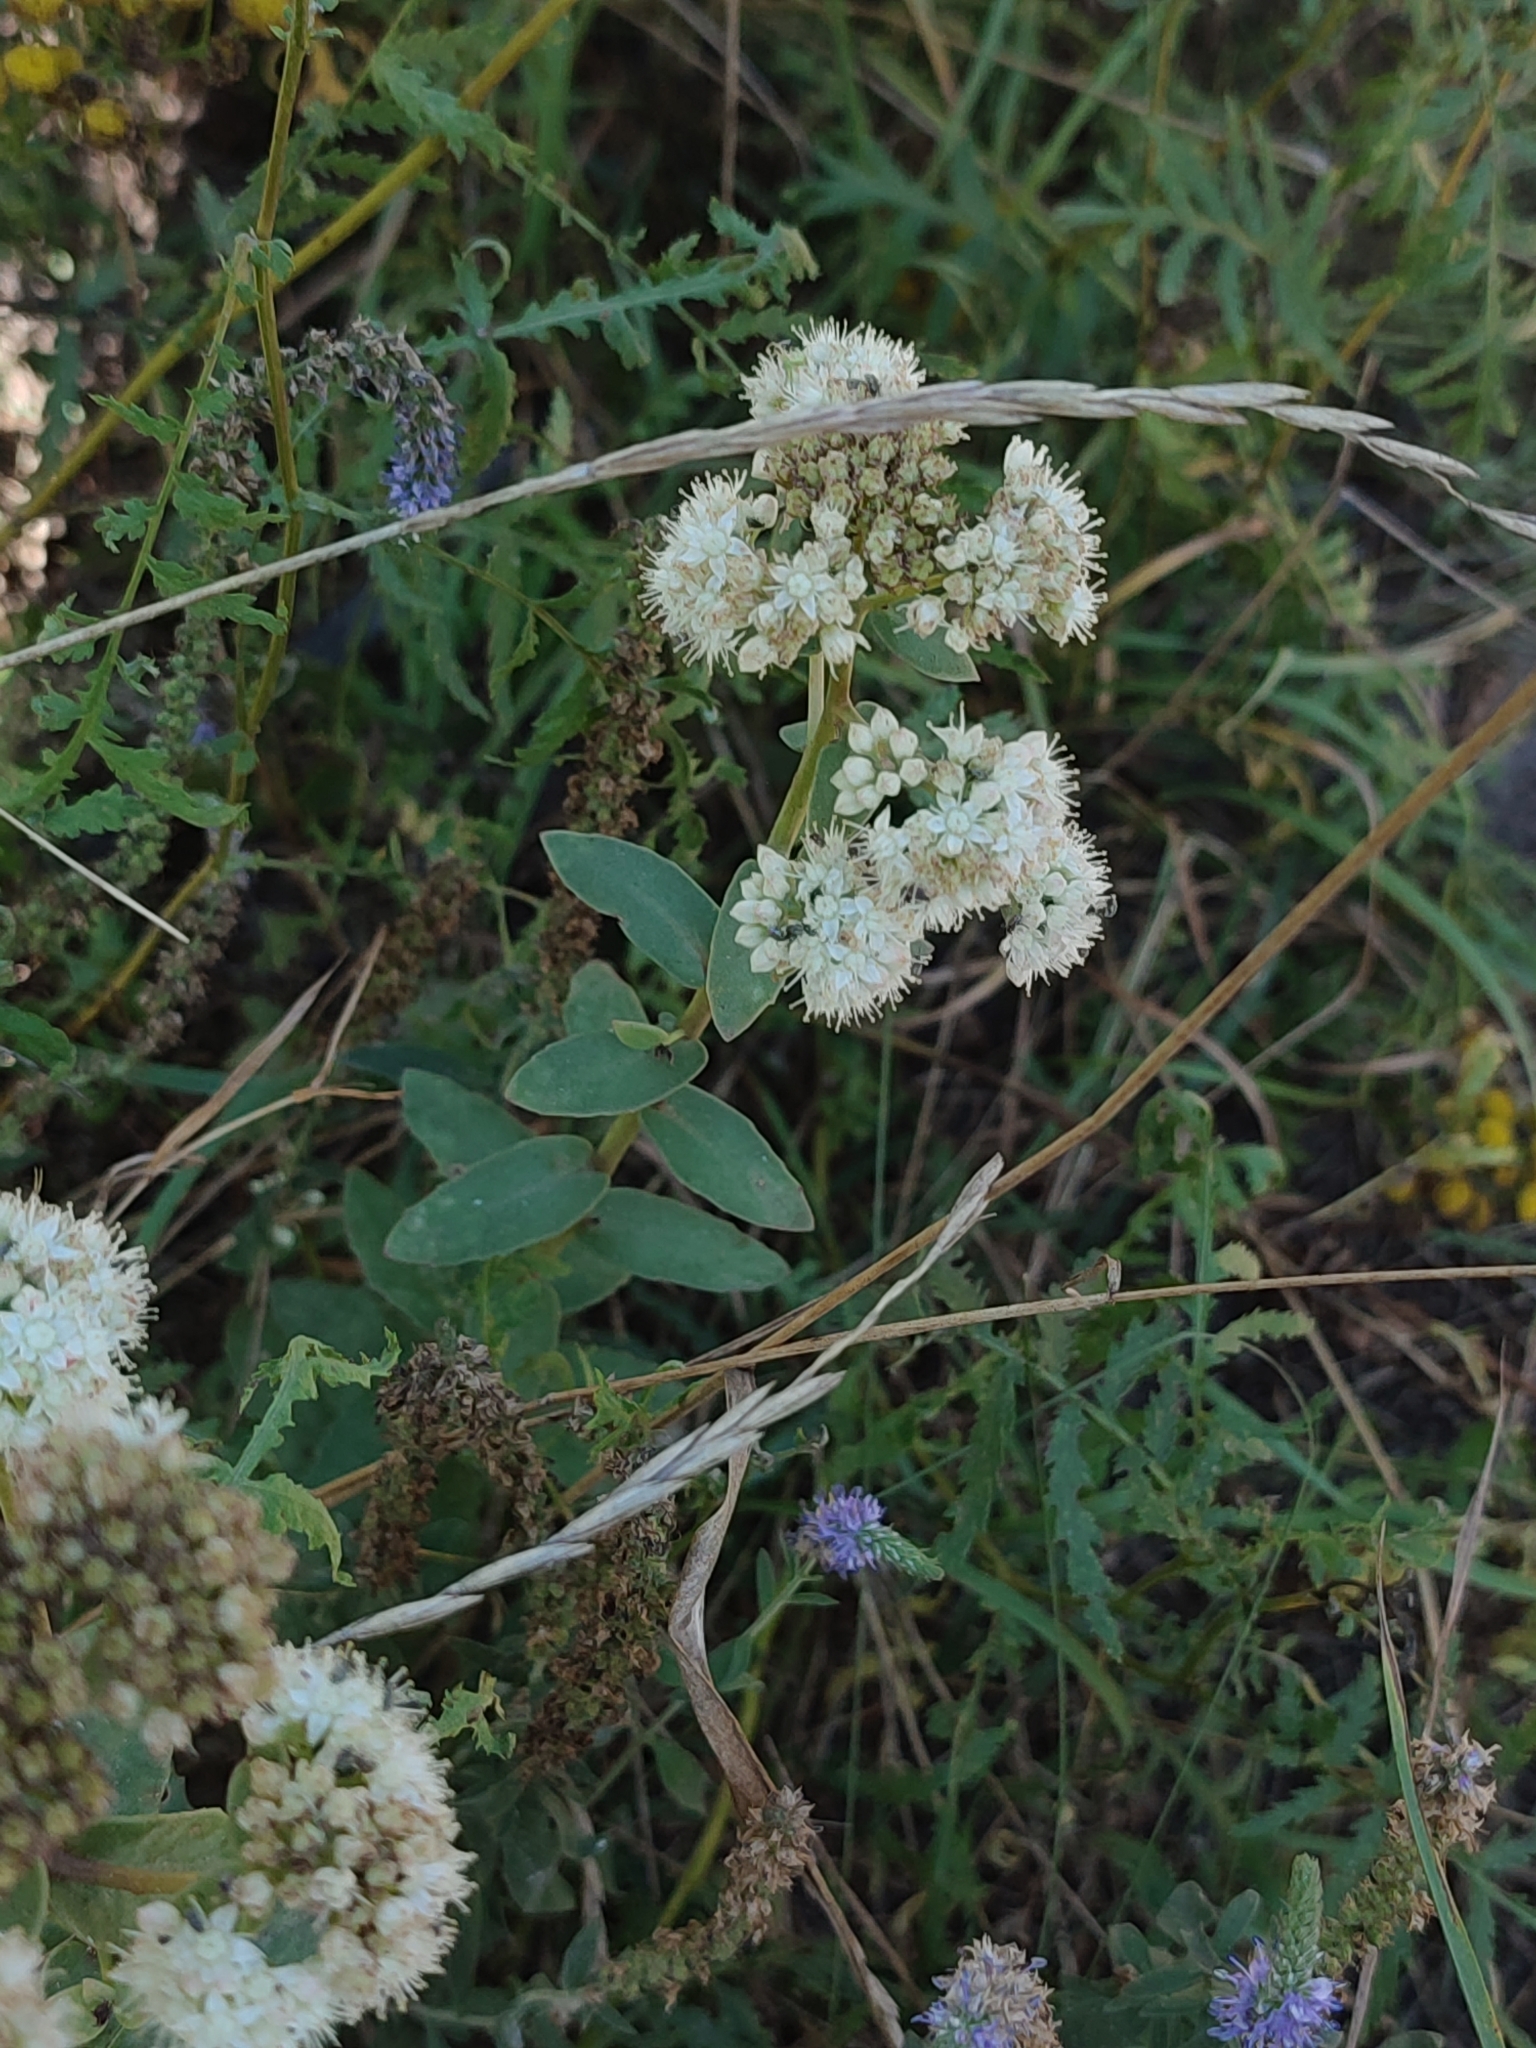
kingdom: Plantae
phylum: Tracheophyta
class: Magnoliopsida
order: Saxifragales
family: Crassulaceae
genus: Hylotelephium
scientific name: Hylotelephium maximum
